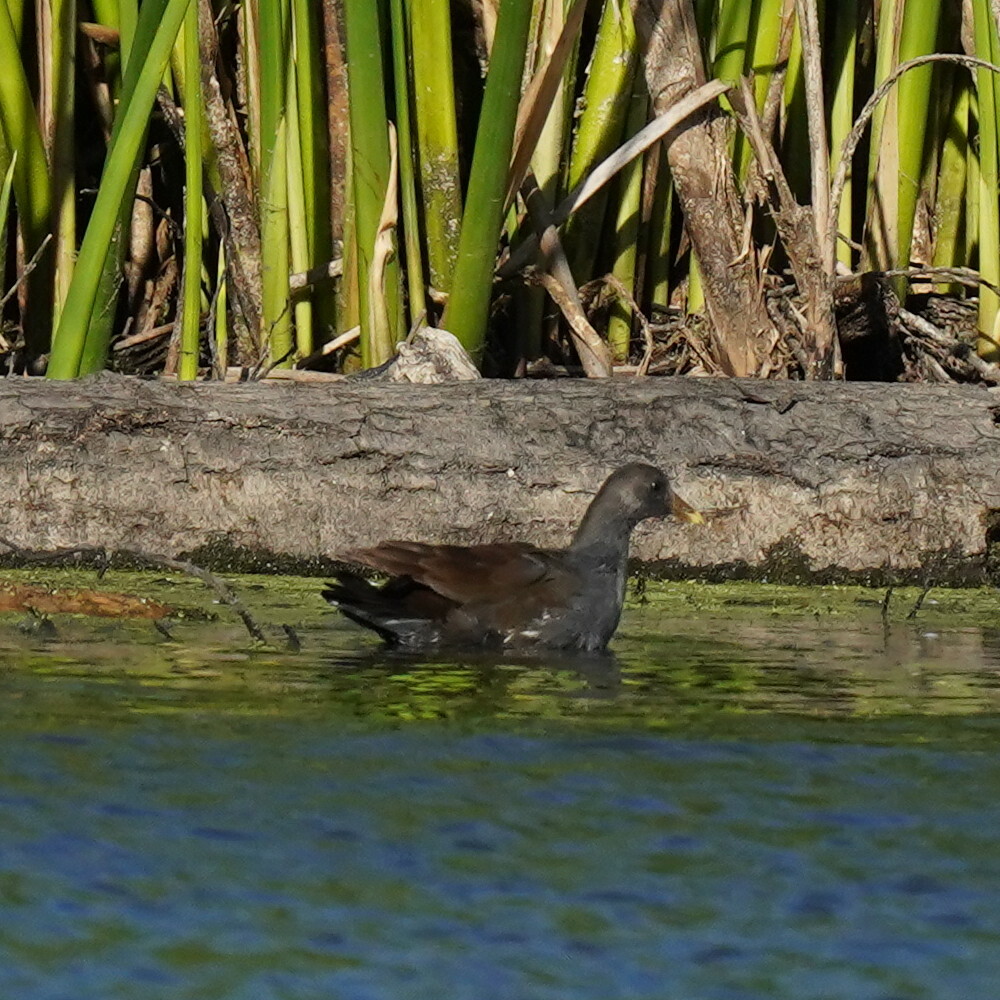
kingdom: Animalia
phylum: Chordata
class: Aves
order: Gruiformes
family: Rallidae
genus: Gallinula
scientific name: Gallinula chloropus
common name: Common moorhen
